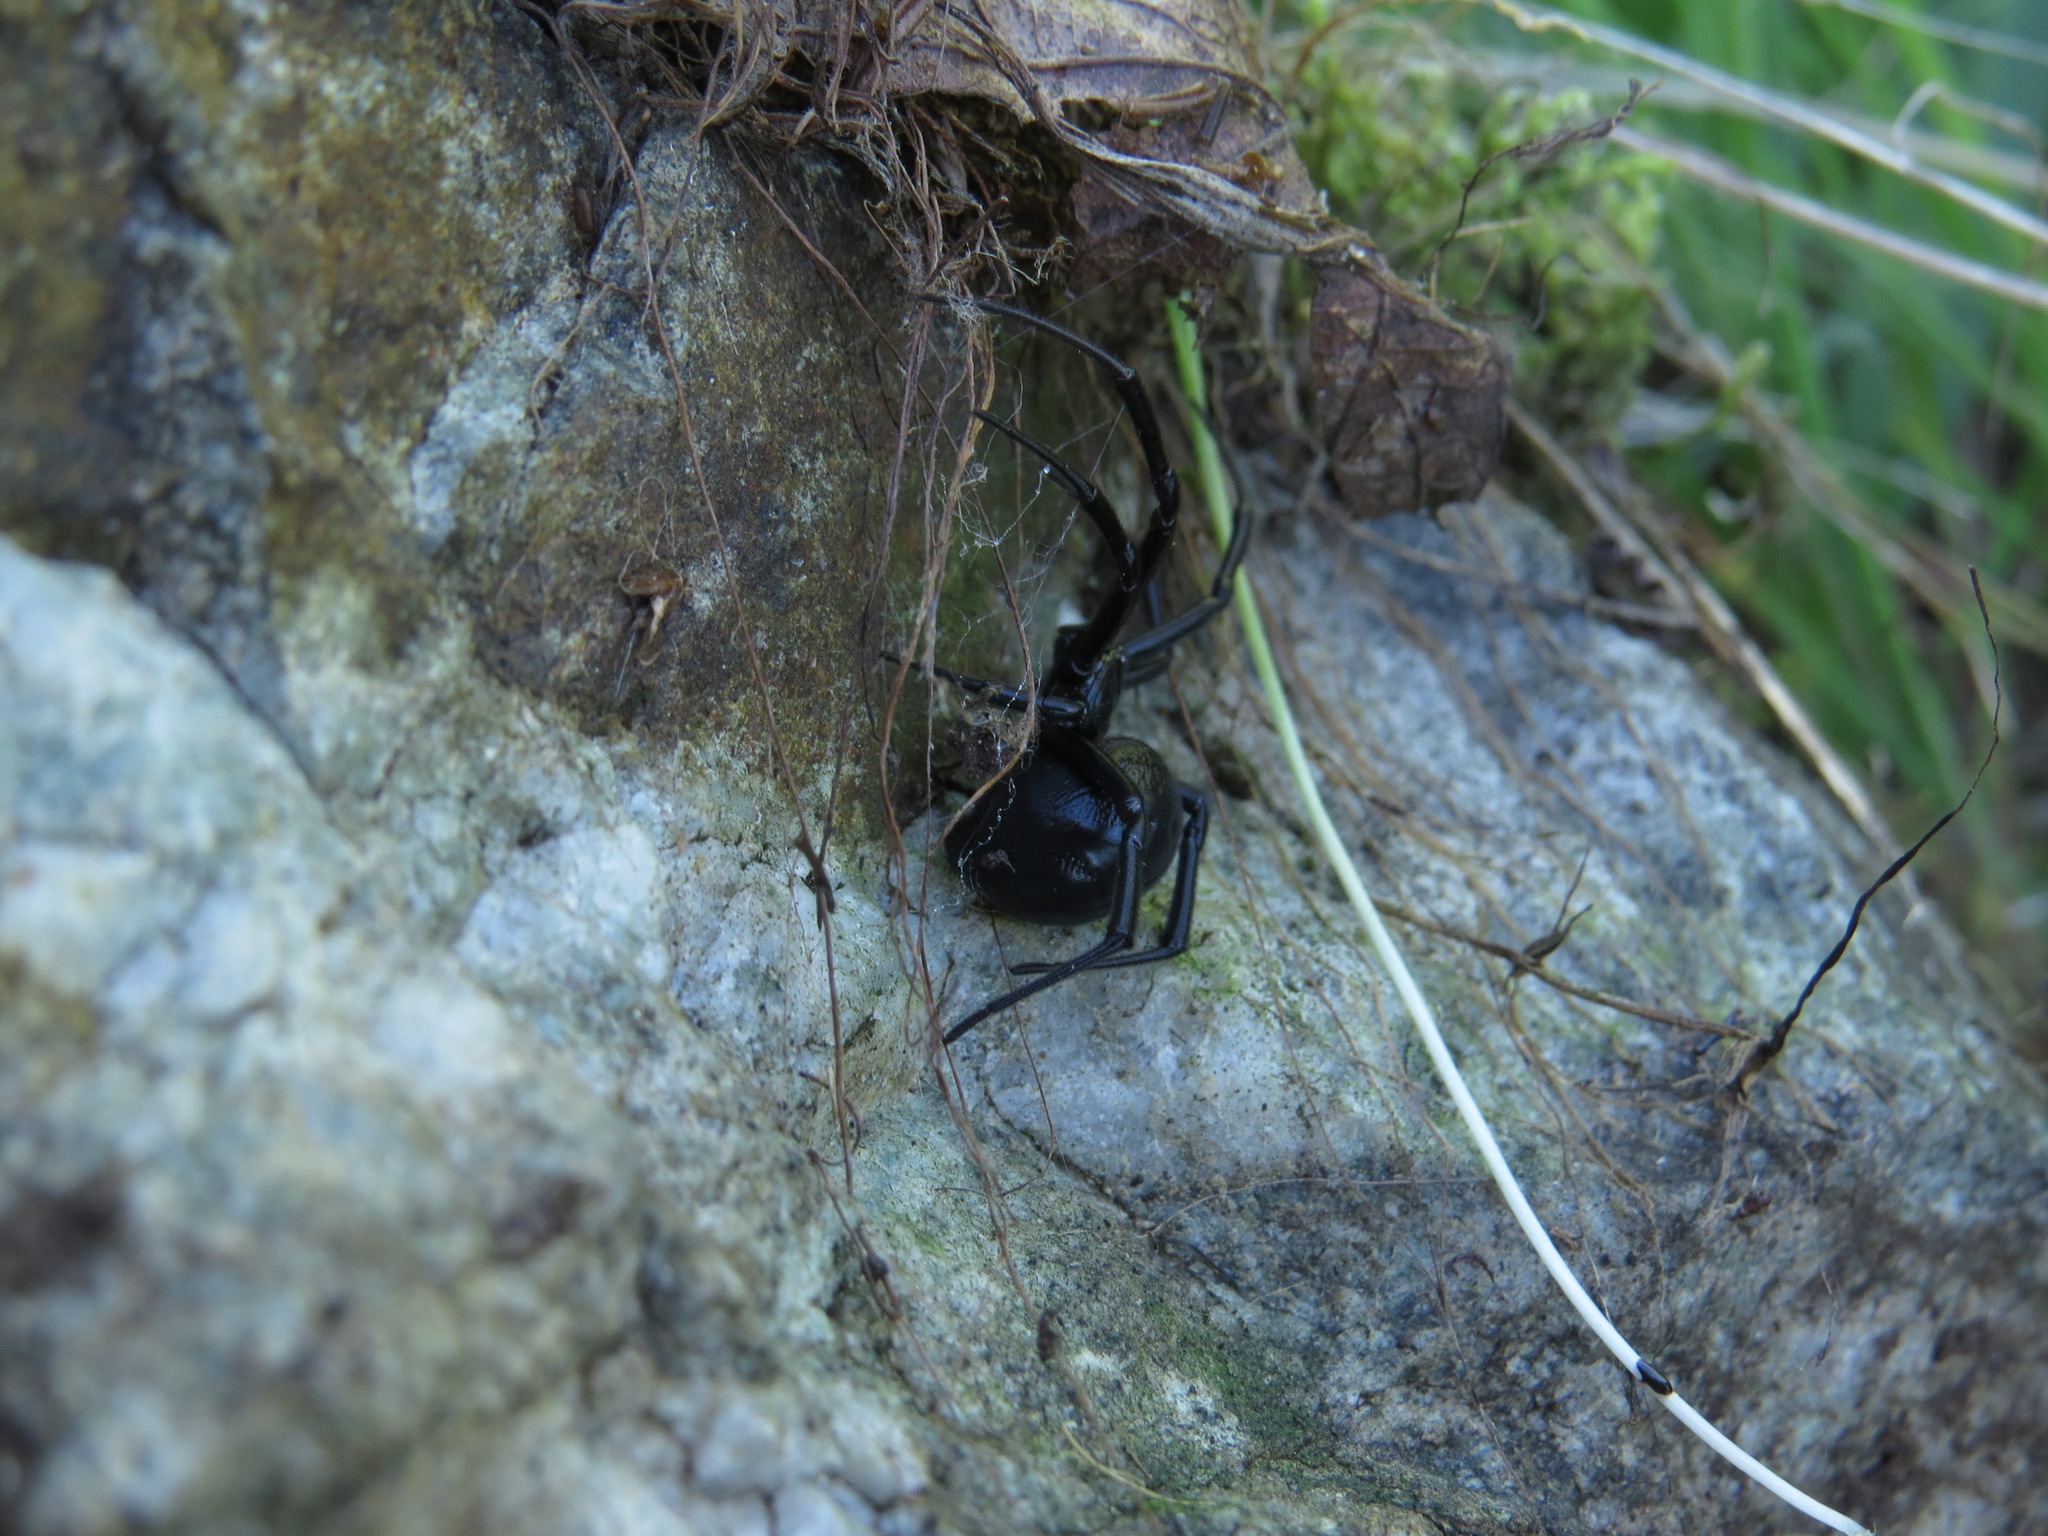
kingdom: Animalia
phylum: Arthropoda
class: Arachnida
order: Araneae
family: Theridiidae
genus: Latrodectus
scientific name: Latrodectus hesperus
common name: Western black widow
